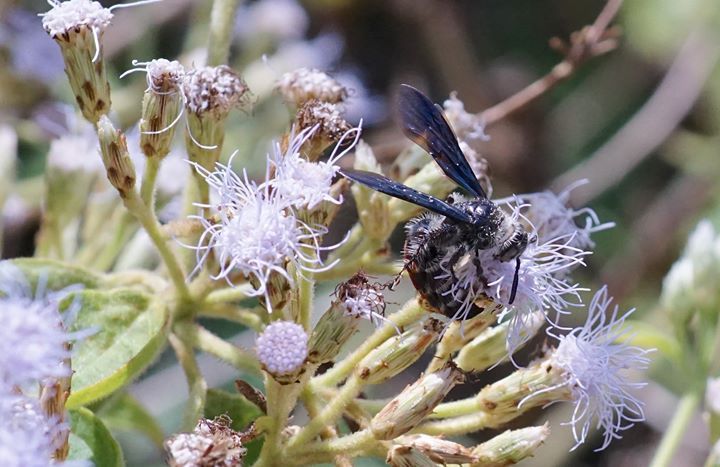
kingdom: Animalia
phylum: Arthropoda
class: Insecta
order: Hymenoptera
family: Scoliidae
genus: Dielis
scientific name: Dielis dorsata
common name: Scoliid wasp
